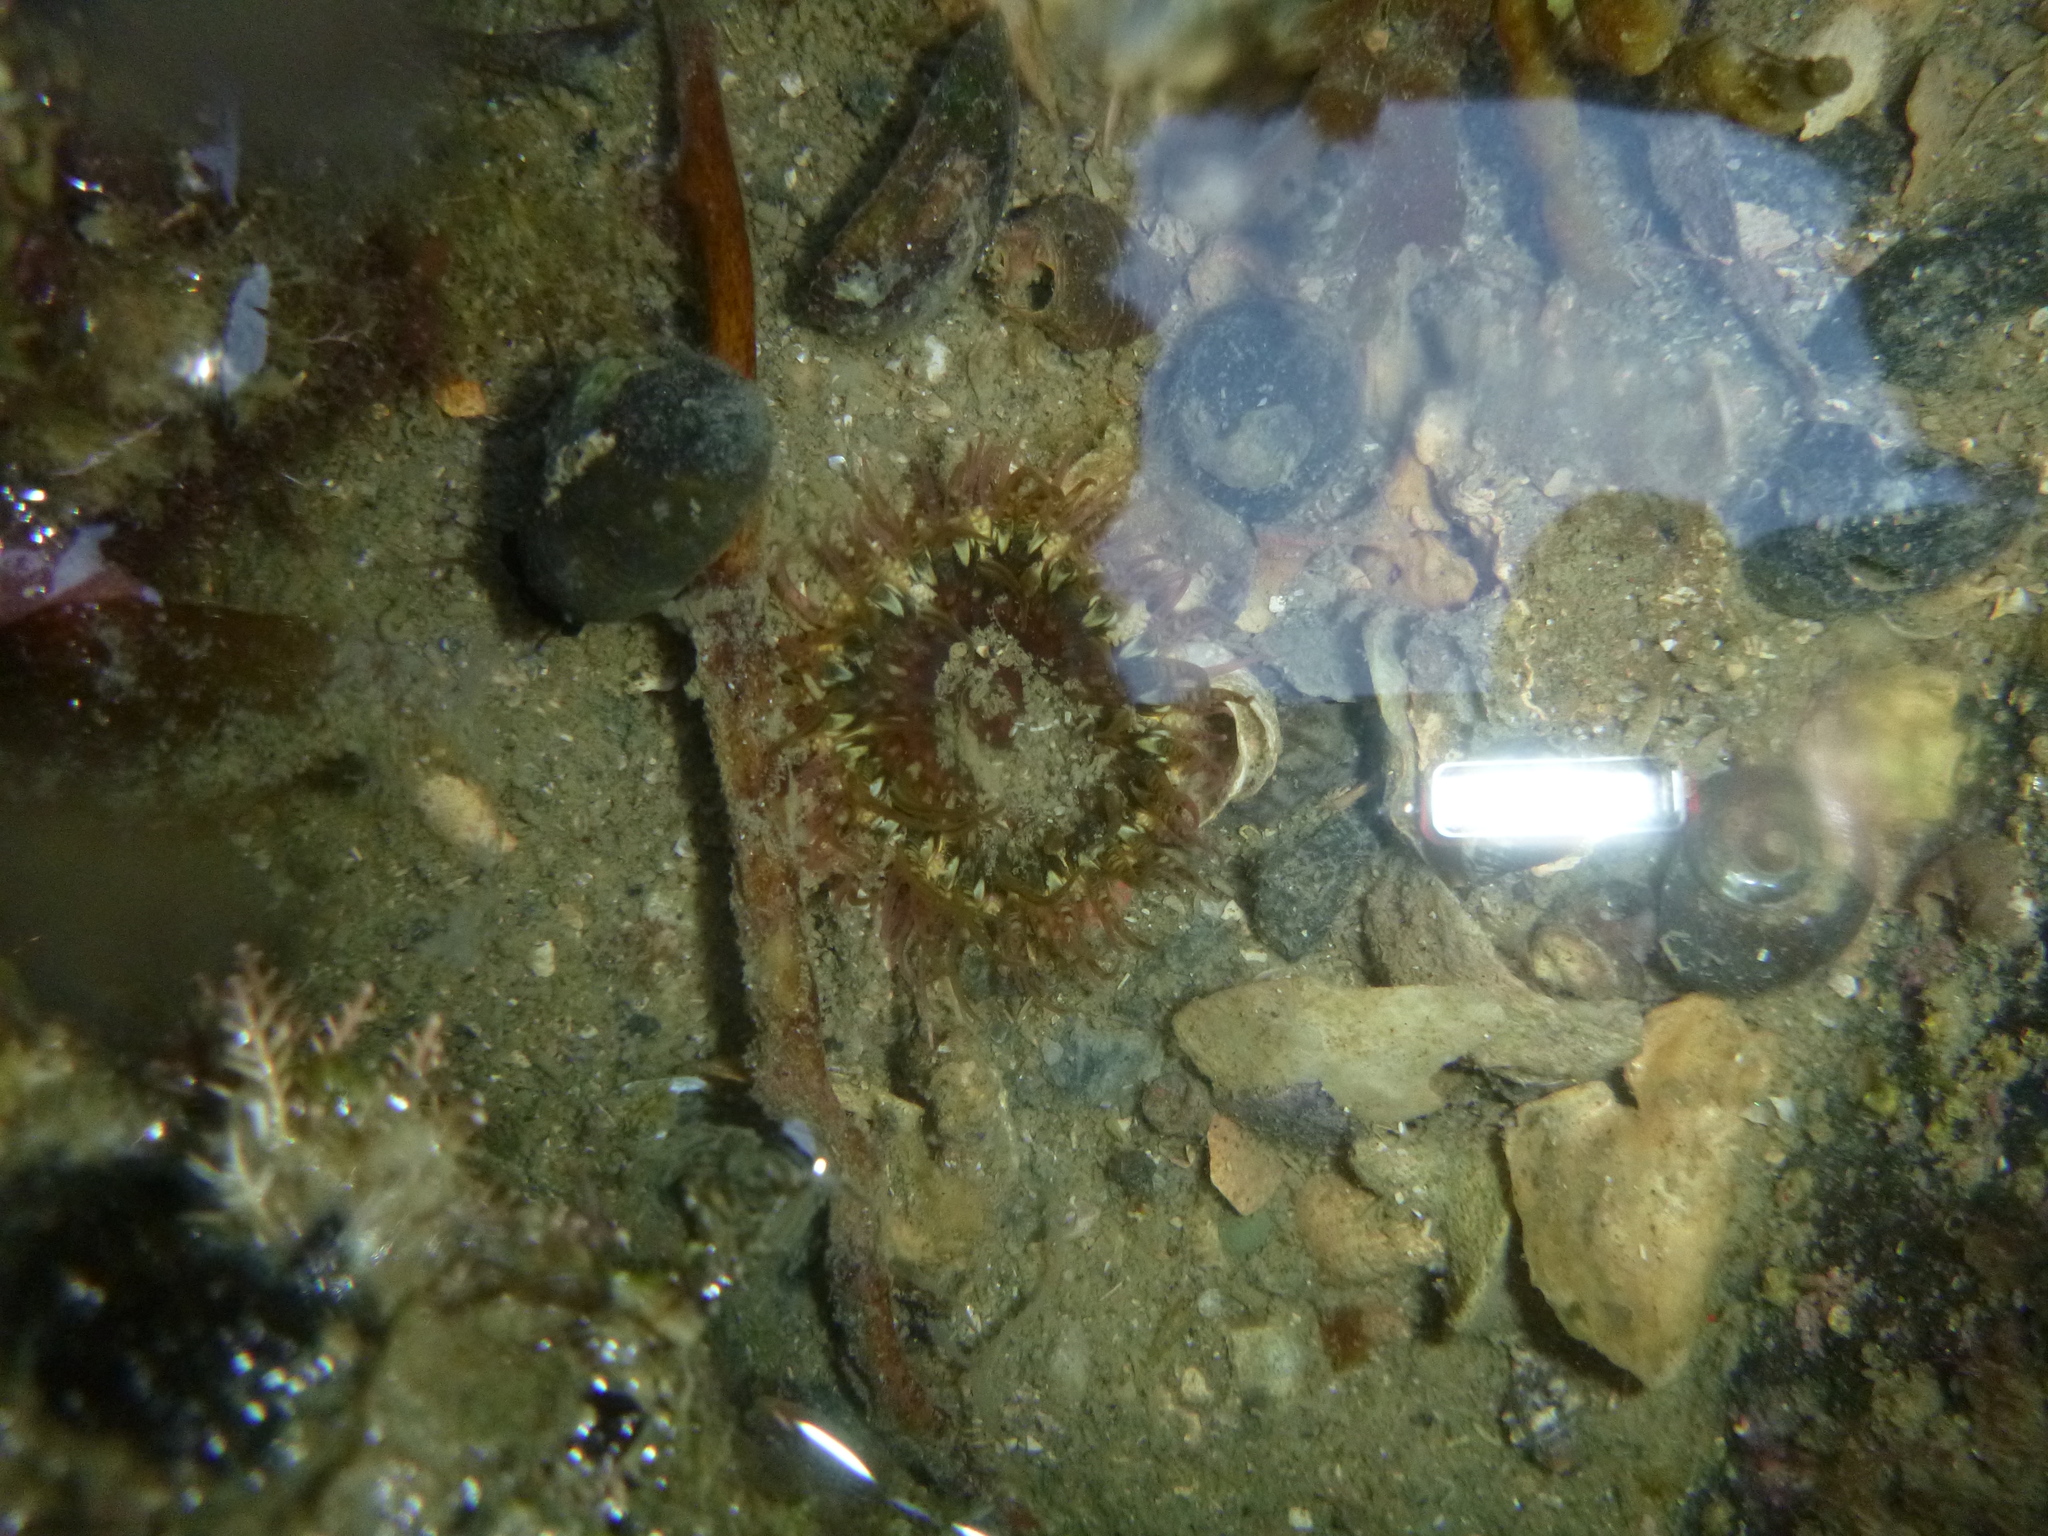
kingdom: Animalia
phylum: Cnidaria
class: Anthozoa
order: Actiniaria
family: Actiniidae
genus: Oulactis
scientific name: Oulactis muscosa
